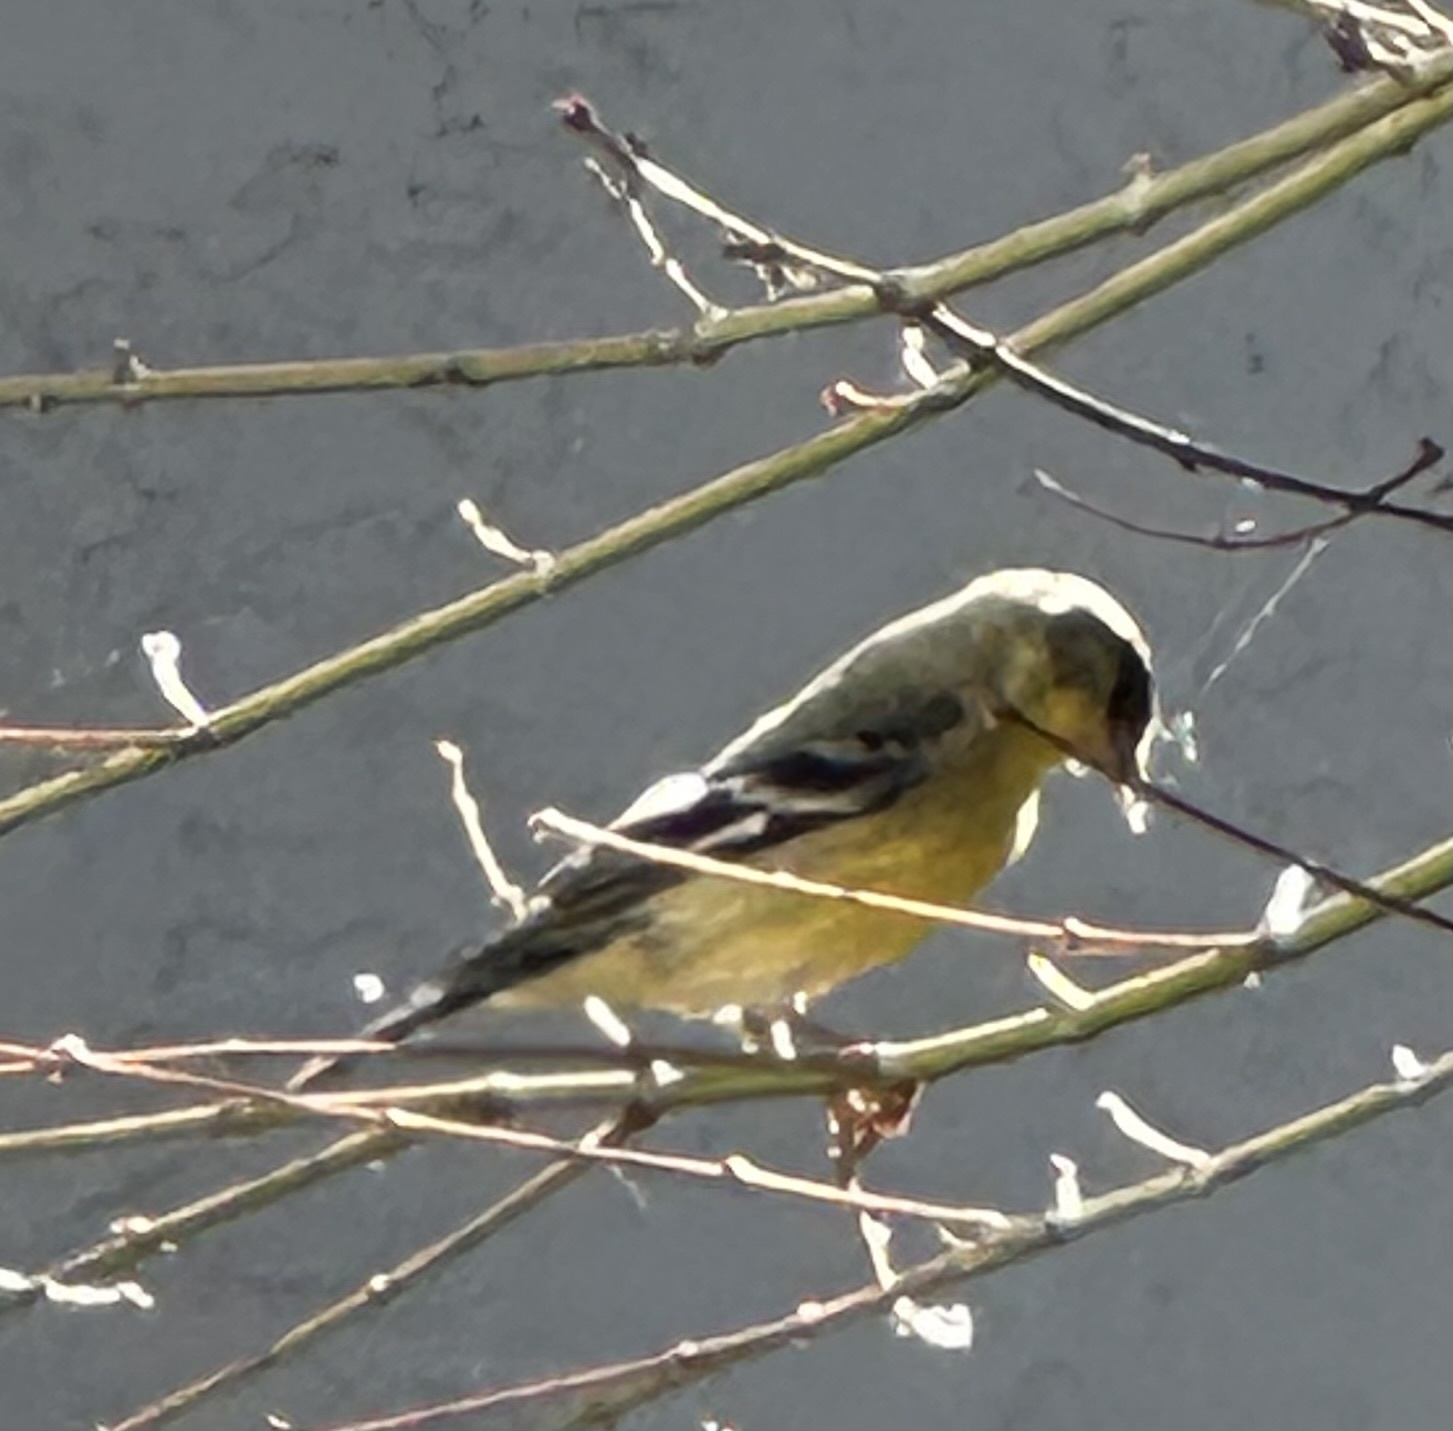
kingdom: Animalia
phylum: Chordata
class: Aves
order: Passeriformes
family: Fringillidae
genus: Spinus
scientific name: Spinus psaltria
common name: Lesser goldfinch
